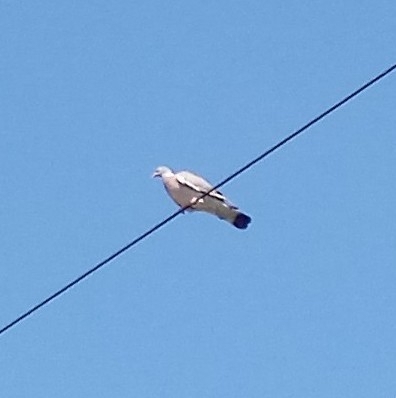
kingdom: Animalia
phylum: Chordata
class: Aves
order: Columbiformes
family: Columbidae
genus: Columba
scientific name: Columba palumbus
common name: Common wood pigeon
